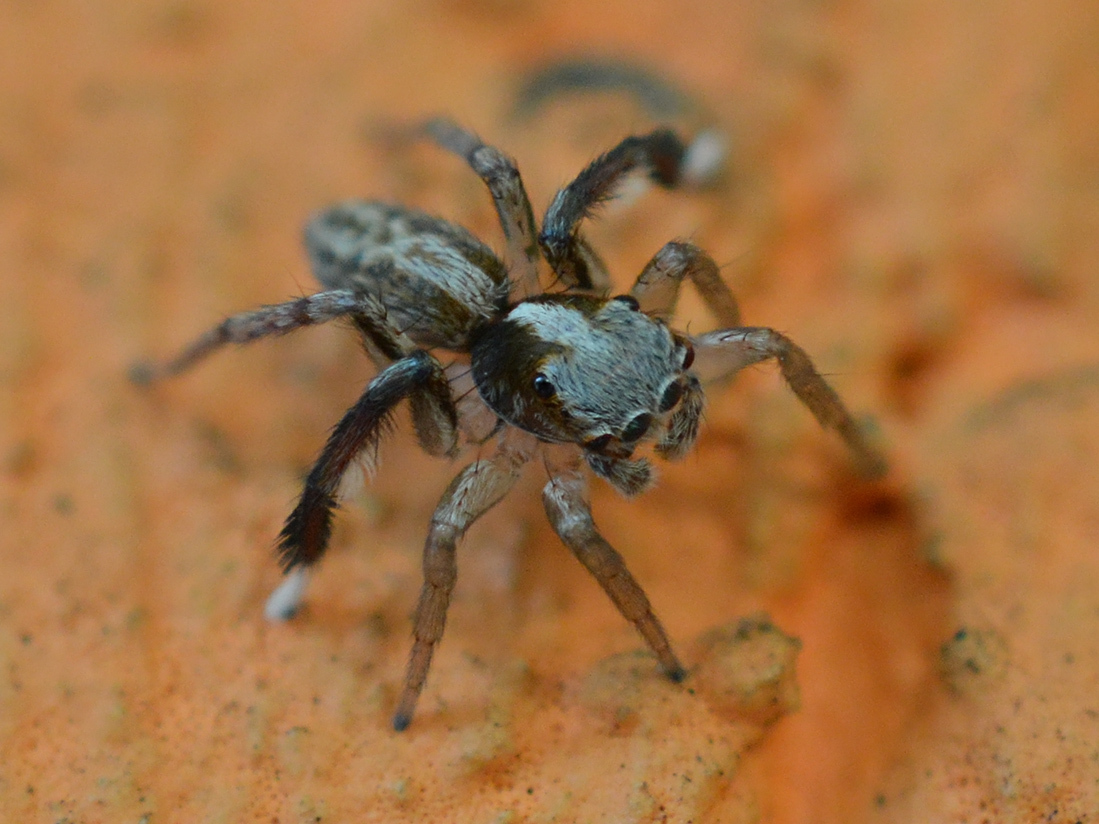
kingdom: Animalia
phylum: Arthropoda
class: Arachnida
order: Araneae
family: Salticidae
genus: Saitis
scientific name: Saitis tauricus
